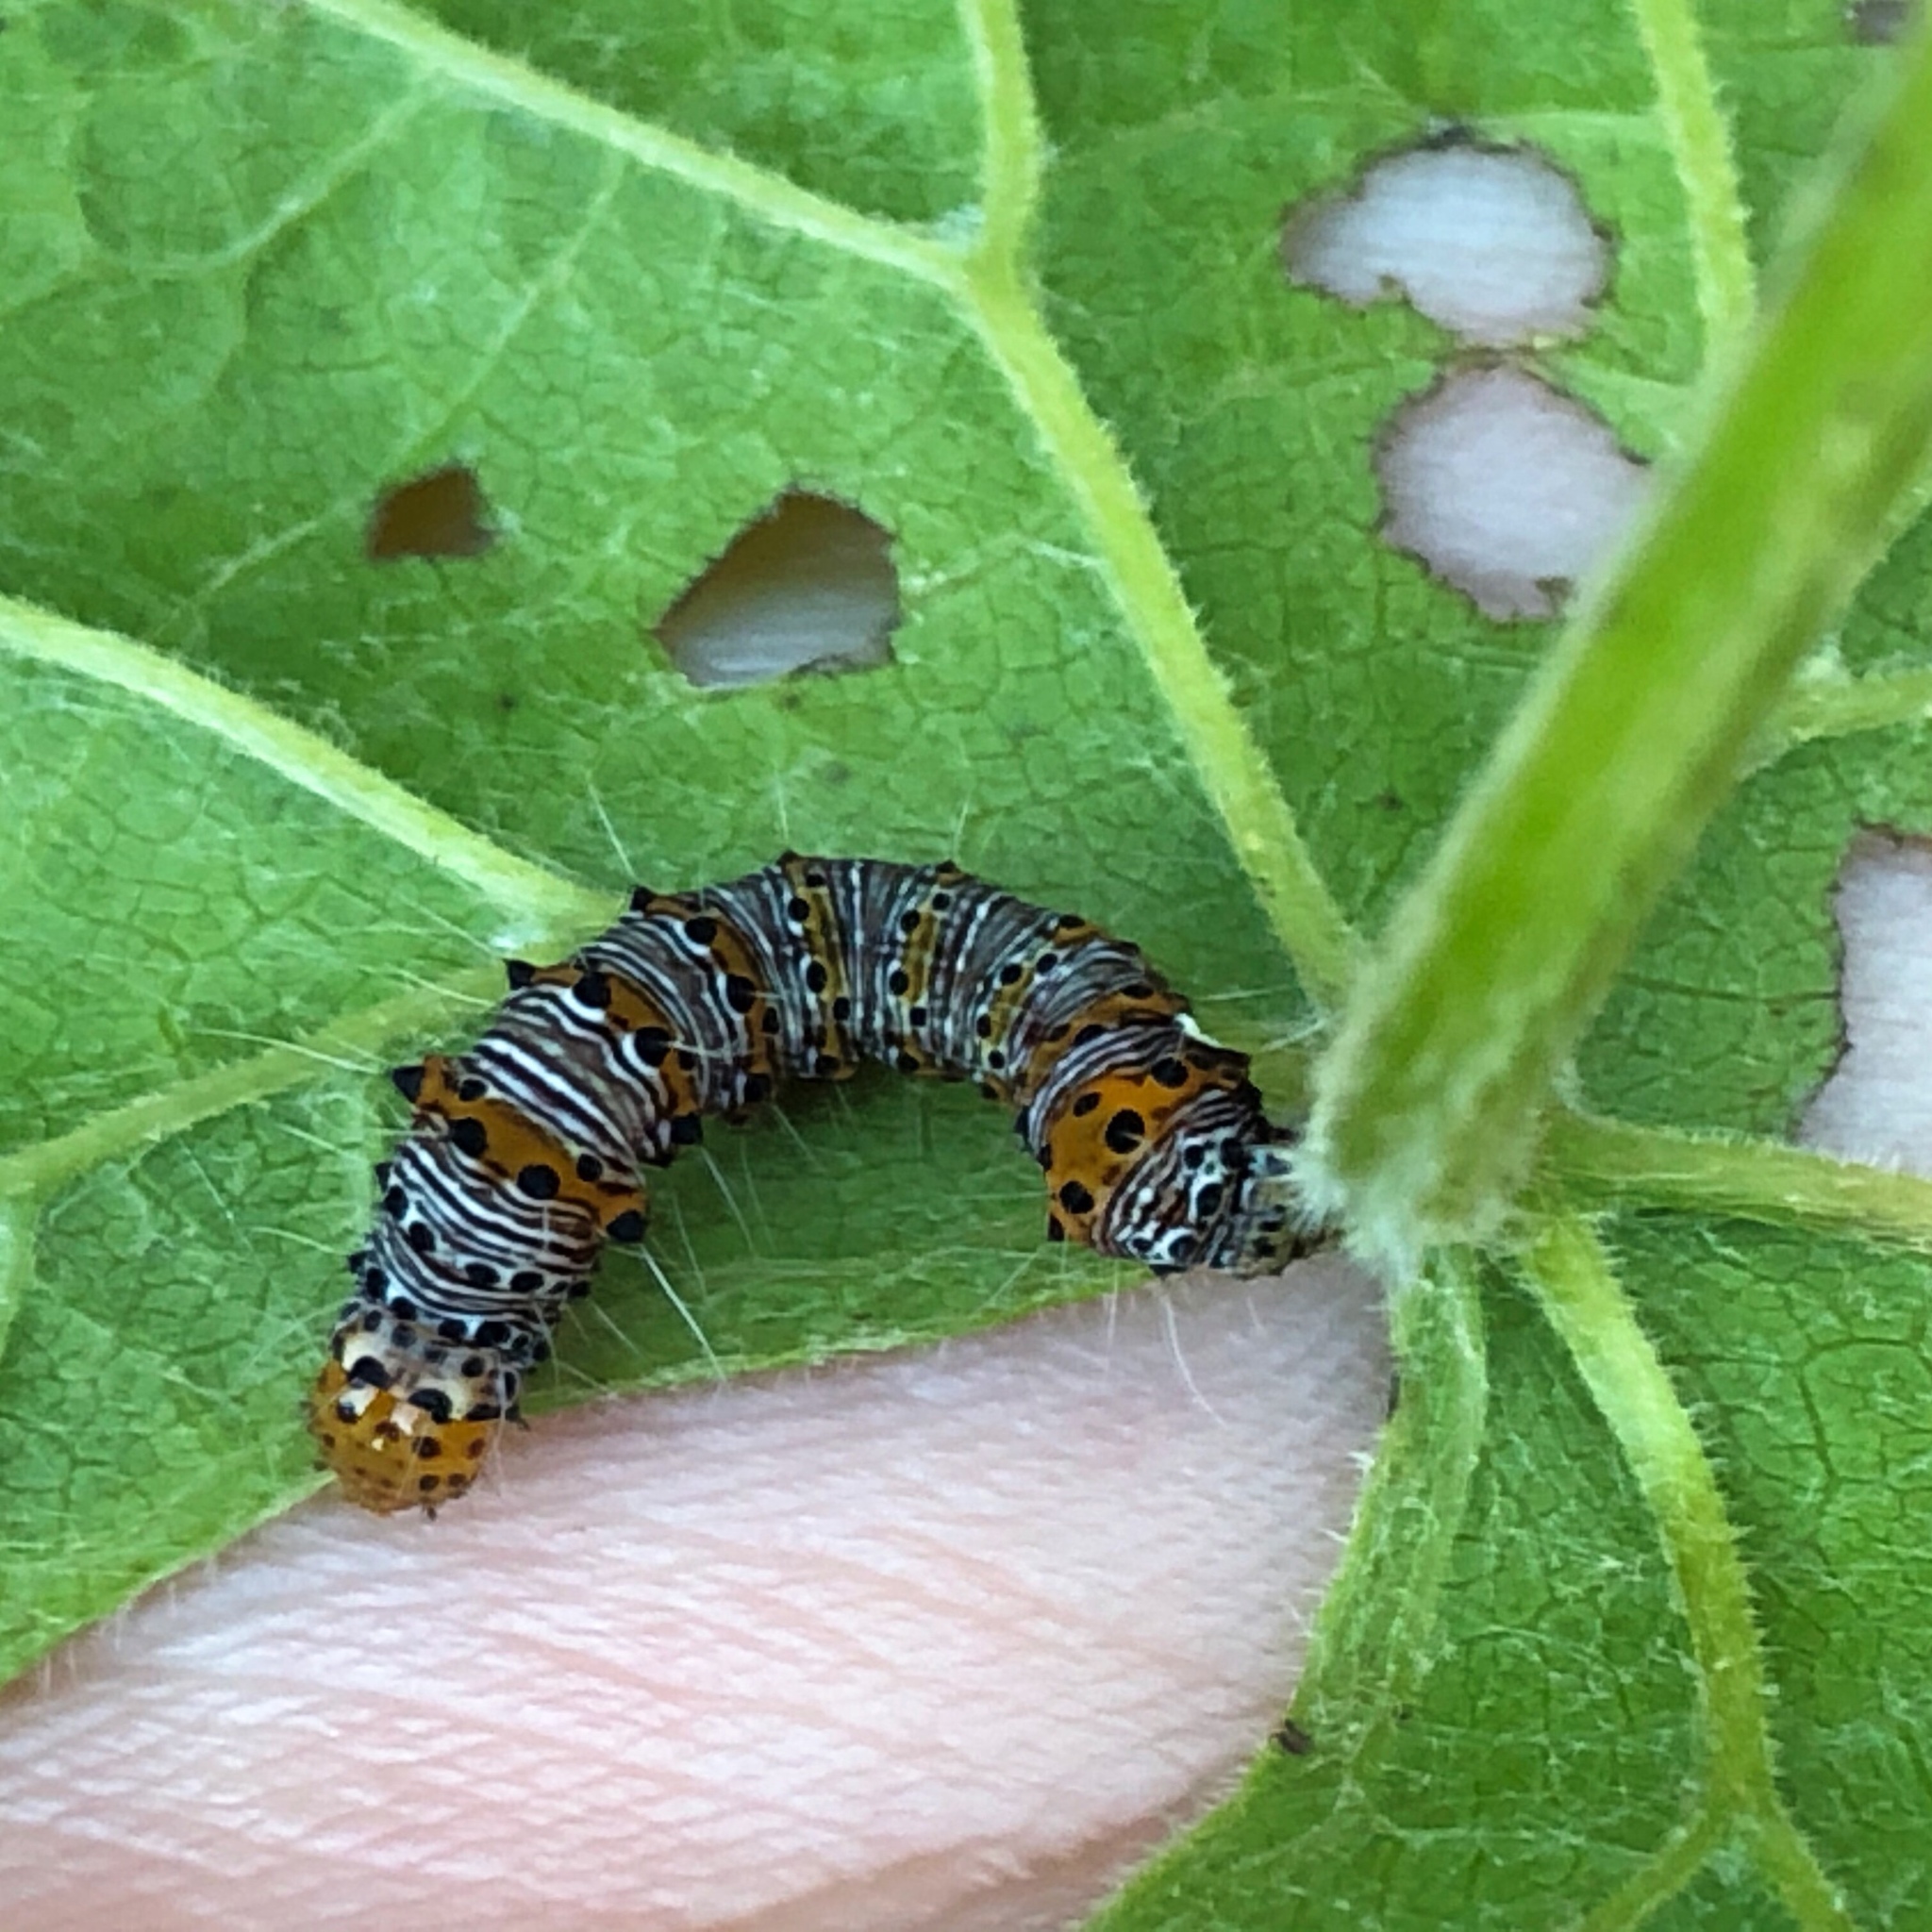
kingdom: Animalia
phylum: Arthropoda
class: Insecta
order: Lepidoptera
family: Noctuidae
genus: Alypia
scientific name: Alypia octomaculata
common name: Eight-spotted forester
